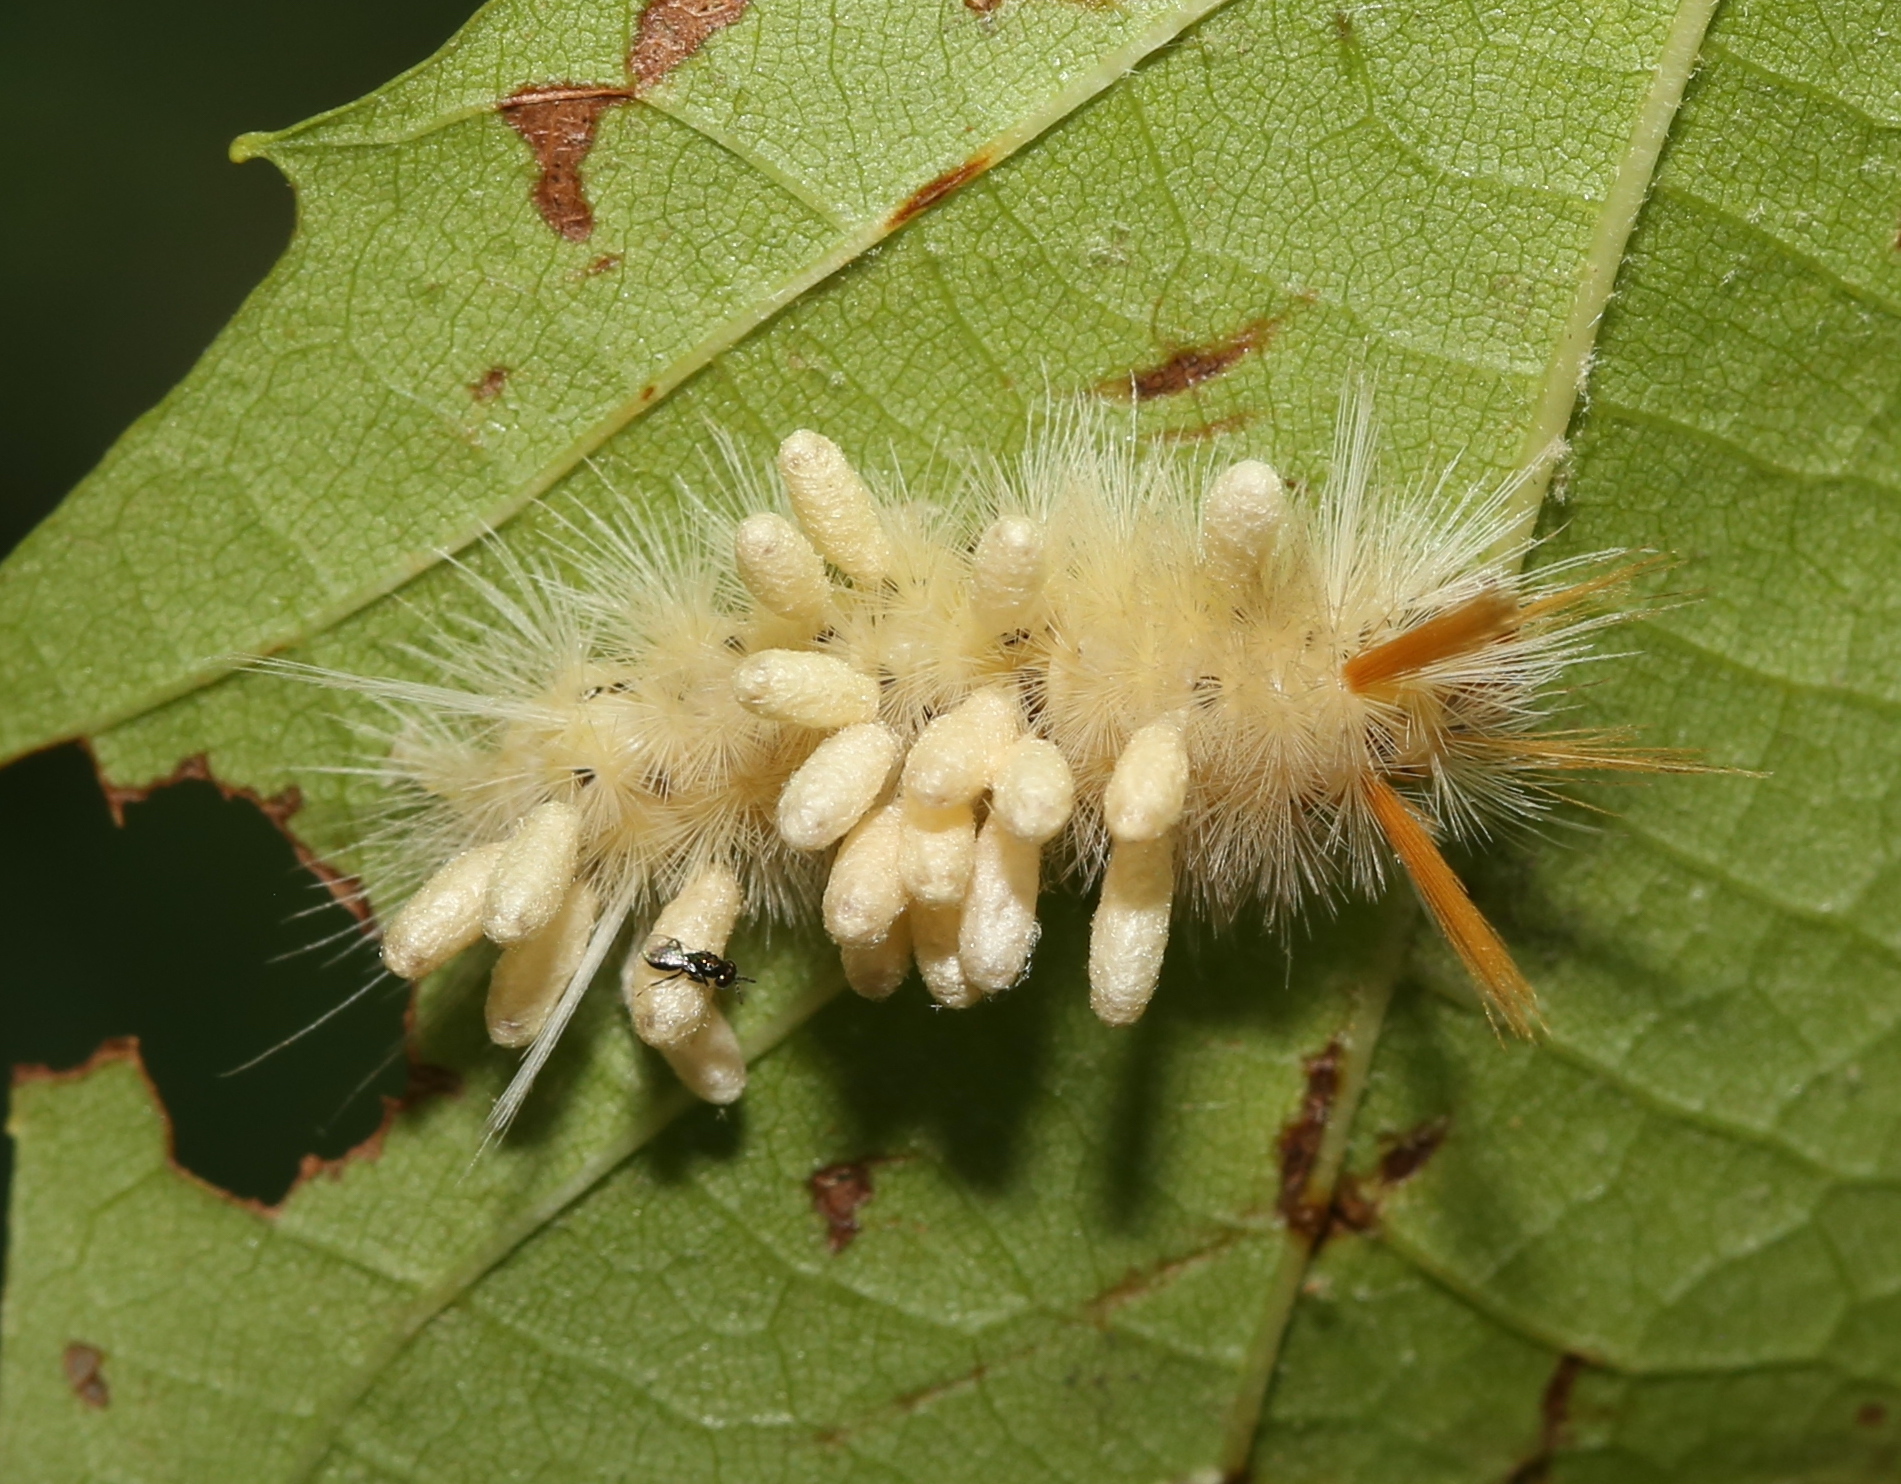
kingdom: Animalia
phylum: Arthropoda
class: Insecta
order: Lepidoptera
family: Erebidae
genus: Halysidota
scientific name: Halysidota harrisii
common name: Sycamore tussock moth
